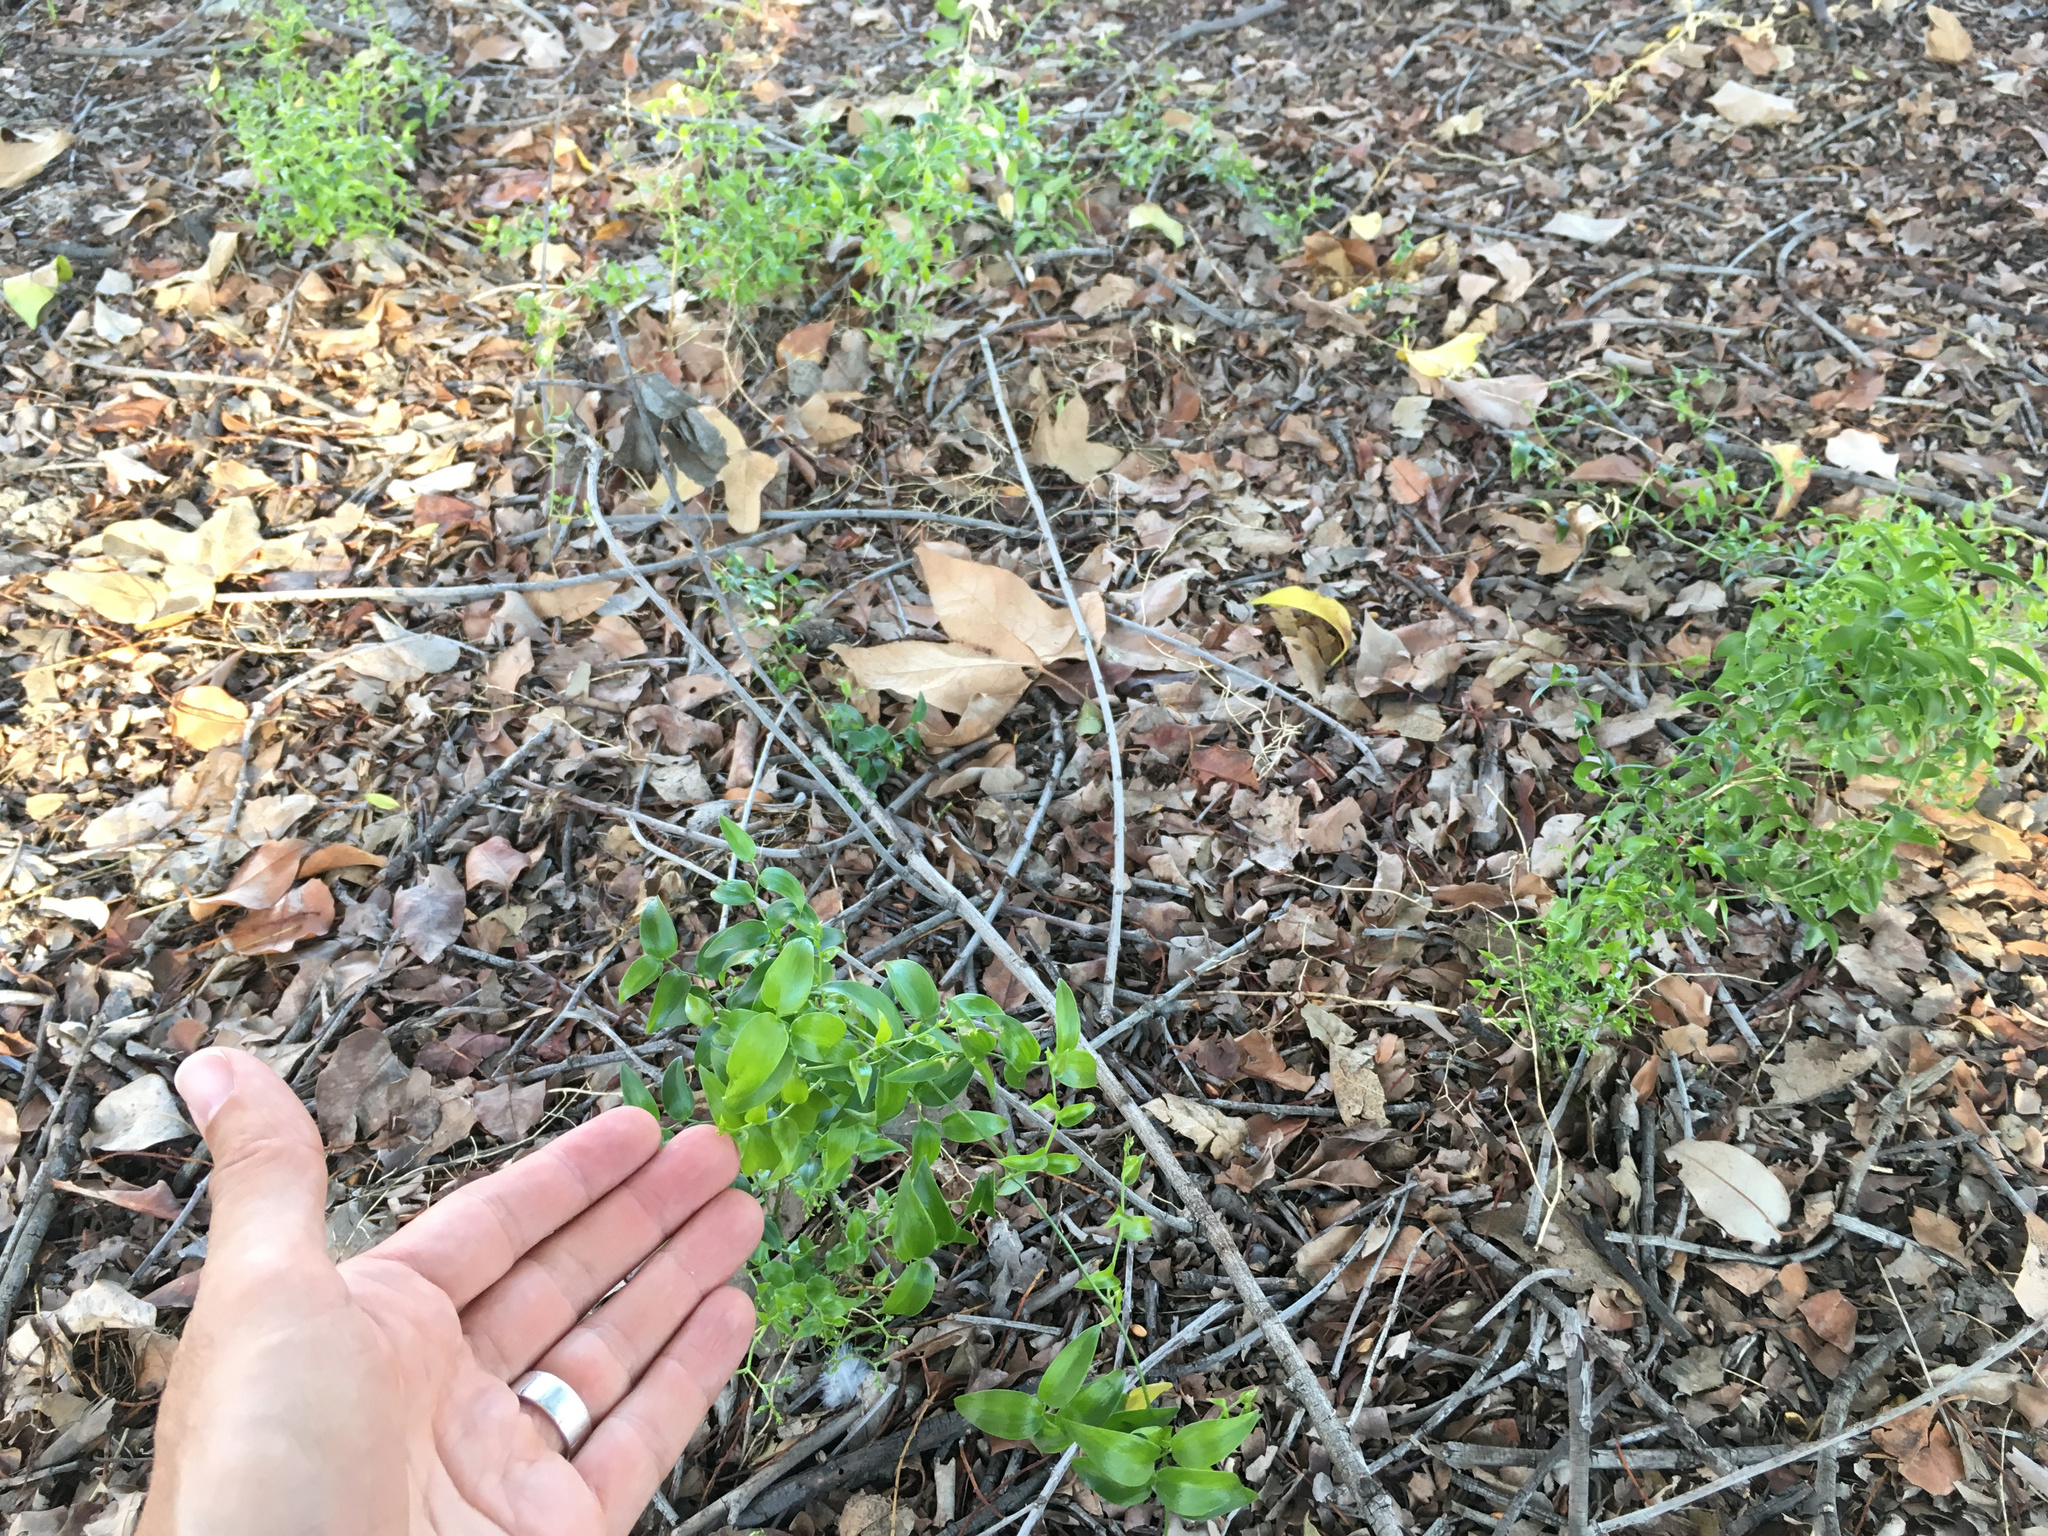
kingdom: Plantae
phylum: Tracheophyta
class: Liliopsida
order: Asparagales
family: Asparagaceae
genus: Asparagus
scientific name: Asparagus asparagoides
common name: African asparagus fern
